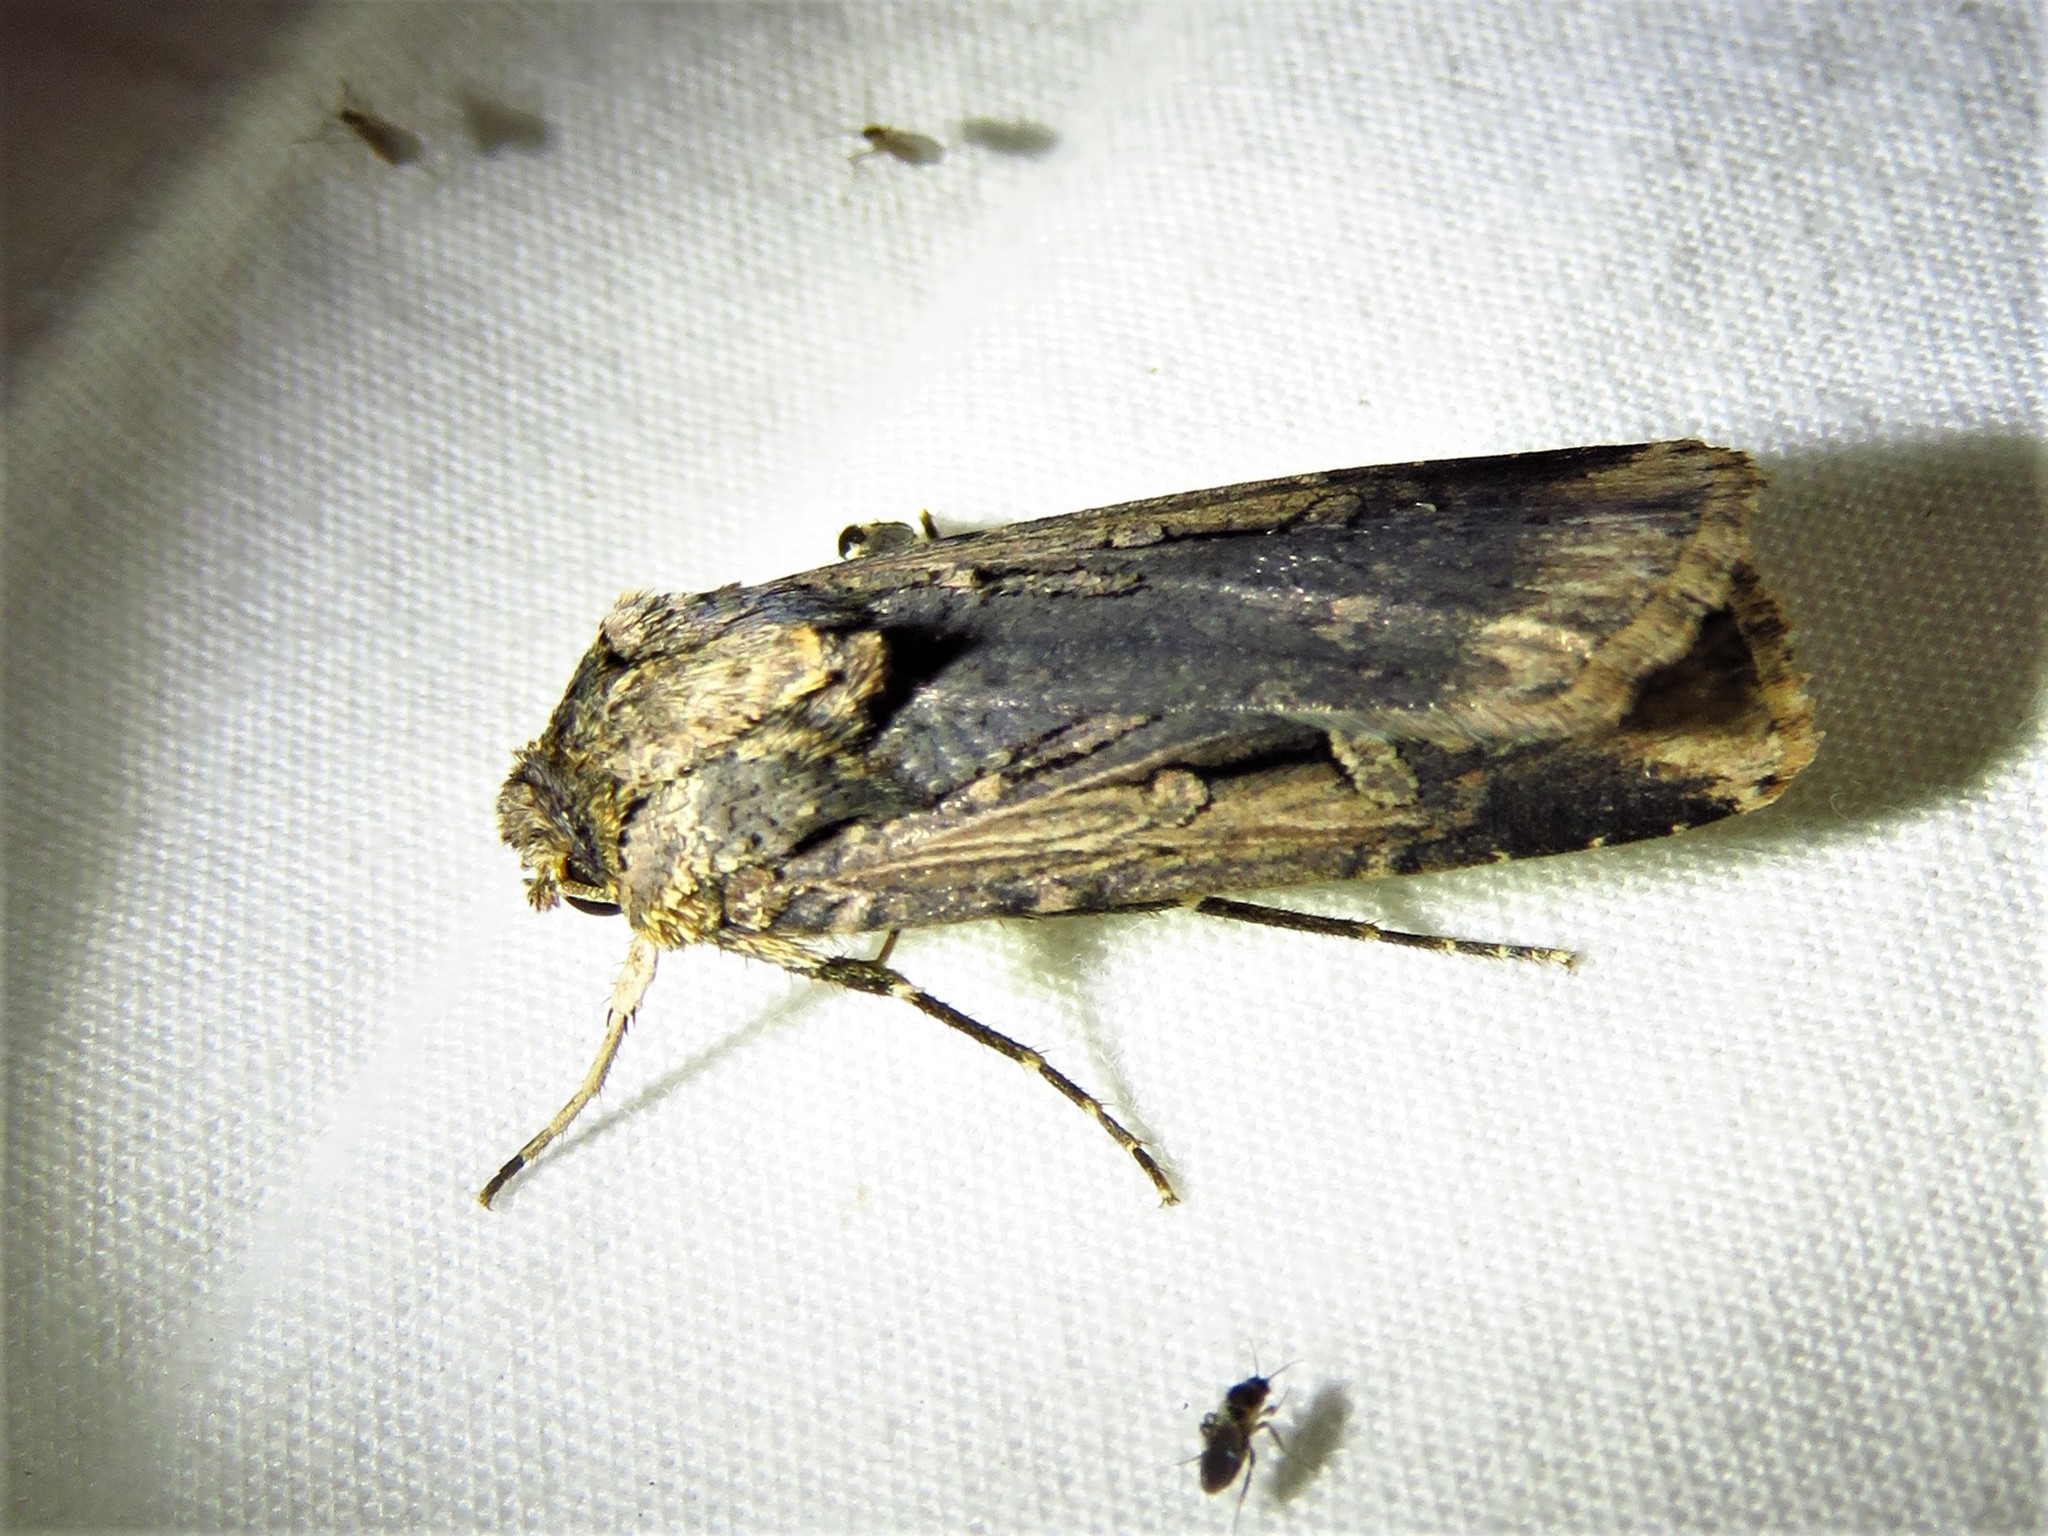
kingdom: Animalia
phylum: Arthropoda
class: Insecta
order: Lepidoptera
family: Noctuidae
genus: Feltia
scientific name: Feltia subterranea
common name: Granulate cutworm
